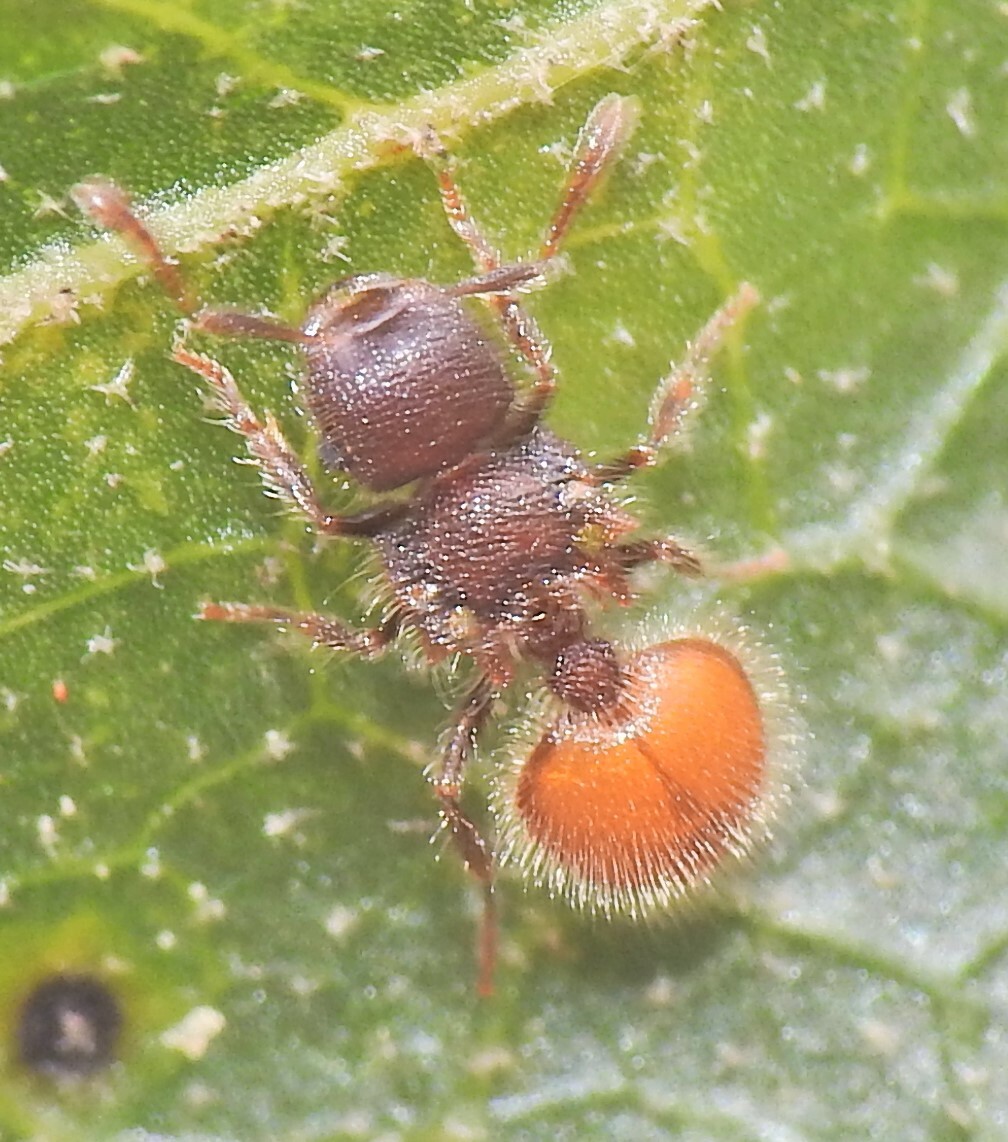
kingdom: Animalia
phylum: Arthropoda
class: Insecta
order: Hymenoptera
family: Formicidae
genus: Meranoplus
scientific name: Meranoplus hirsutus
